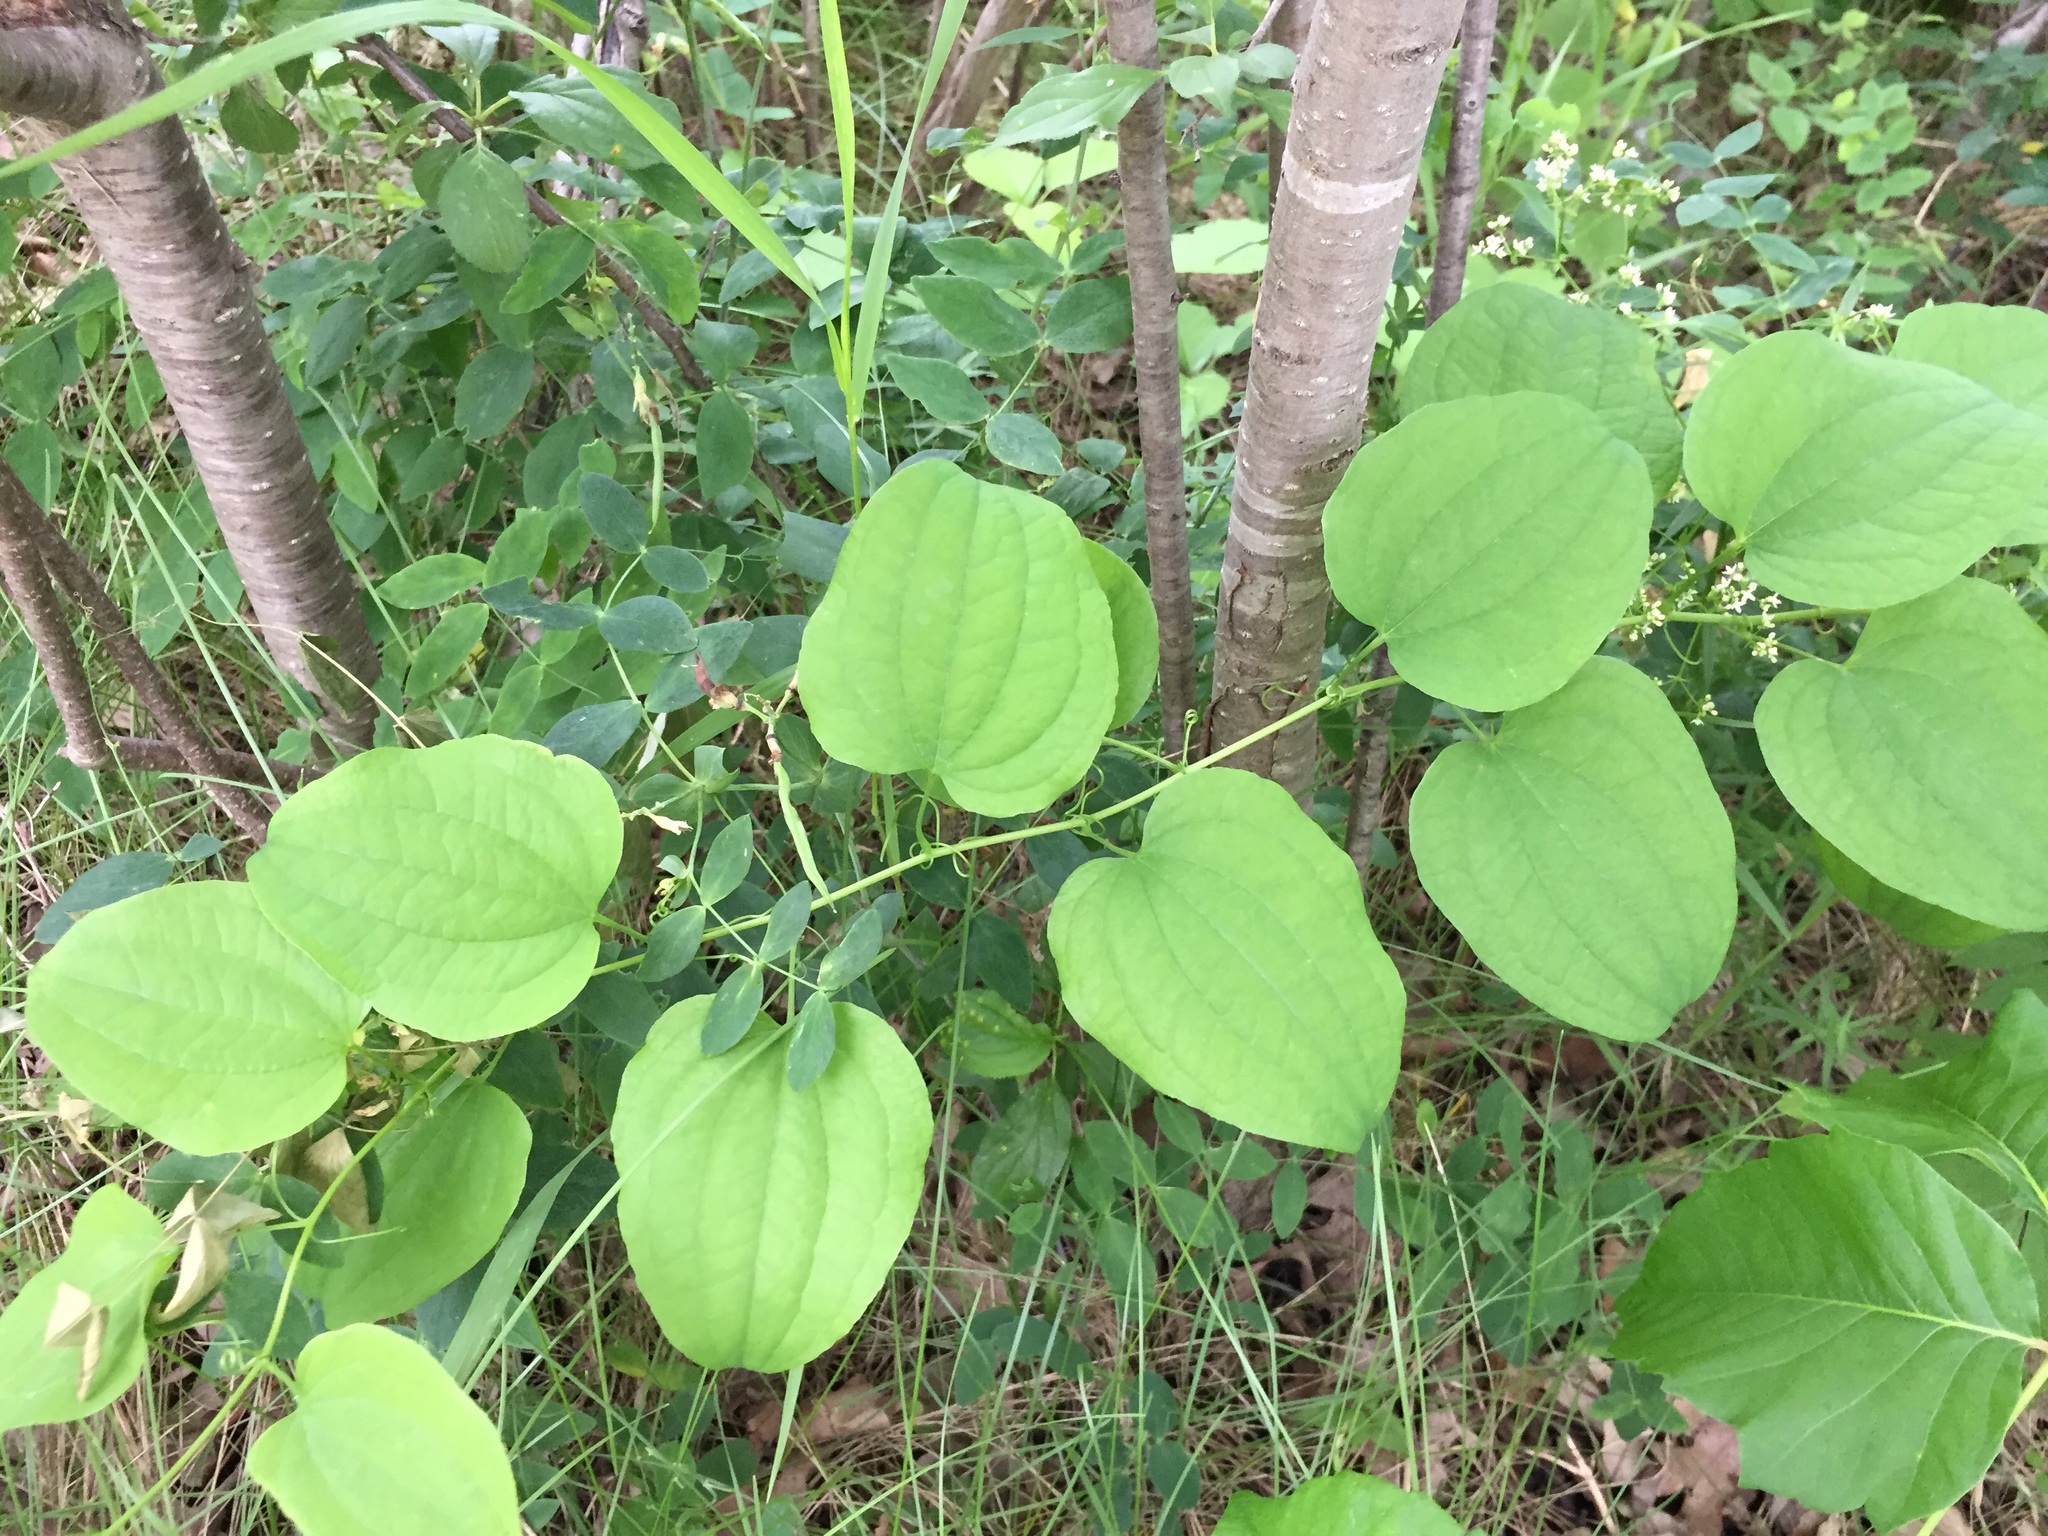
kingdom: Plantae
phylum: Tracheophyta
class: Liliopsida
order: Liliales
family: Smilacaceae
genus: Smilax
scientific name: Smilax lasioneura
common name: Blue ridge carrionflower
